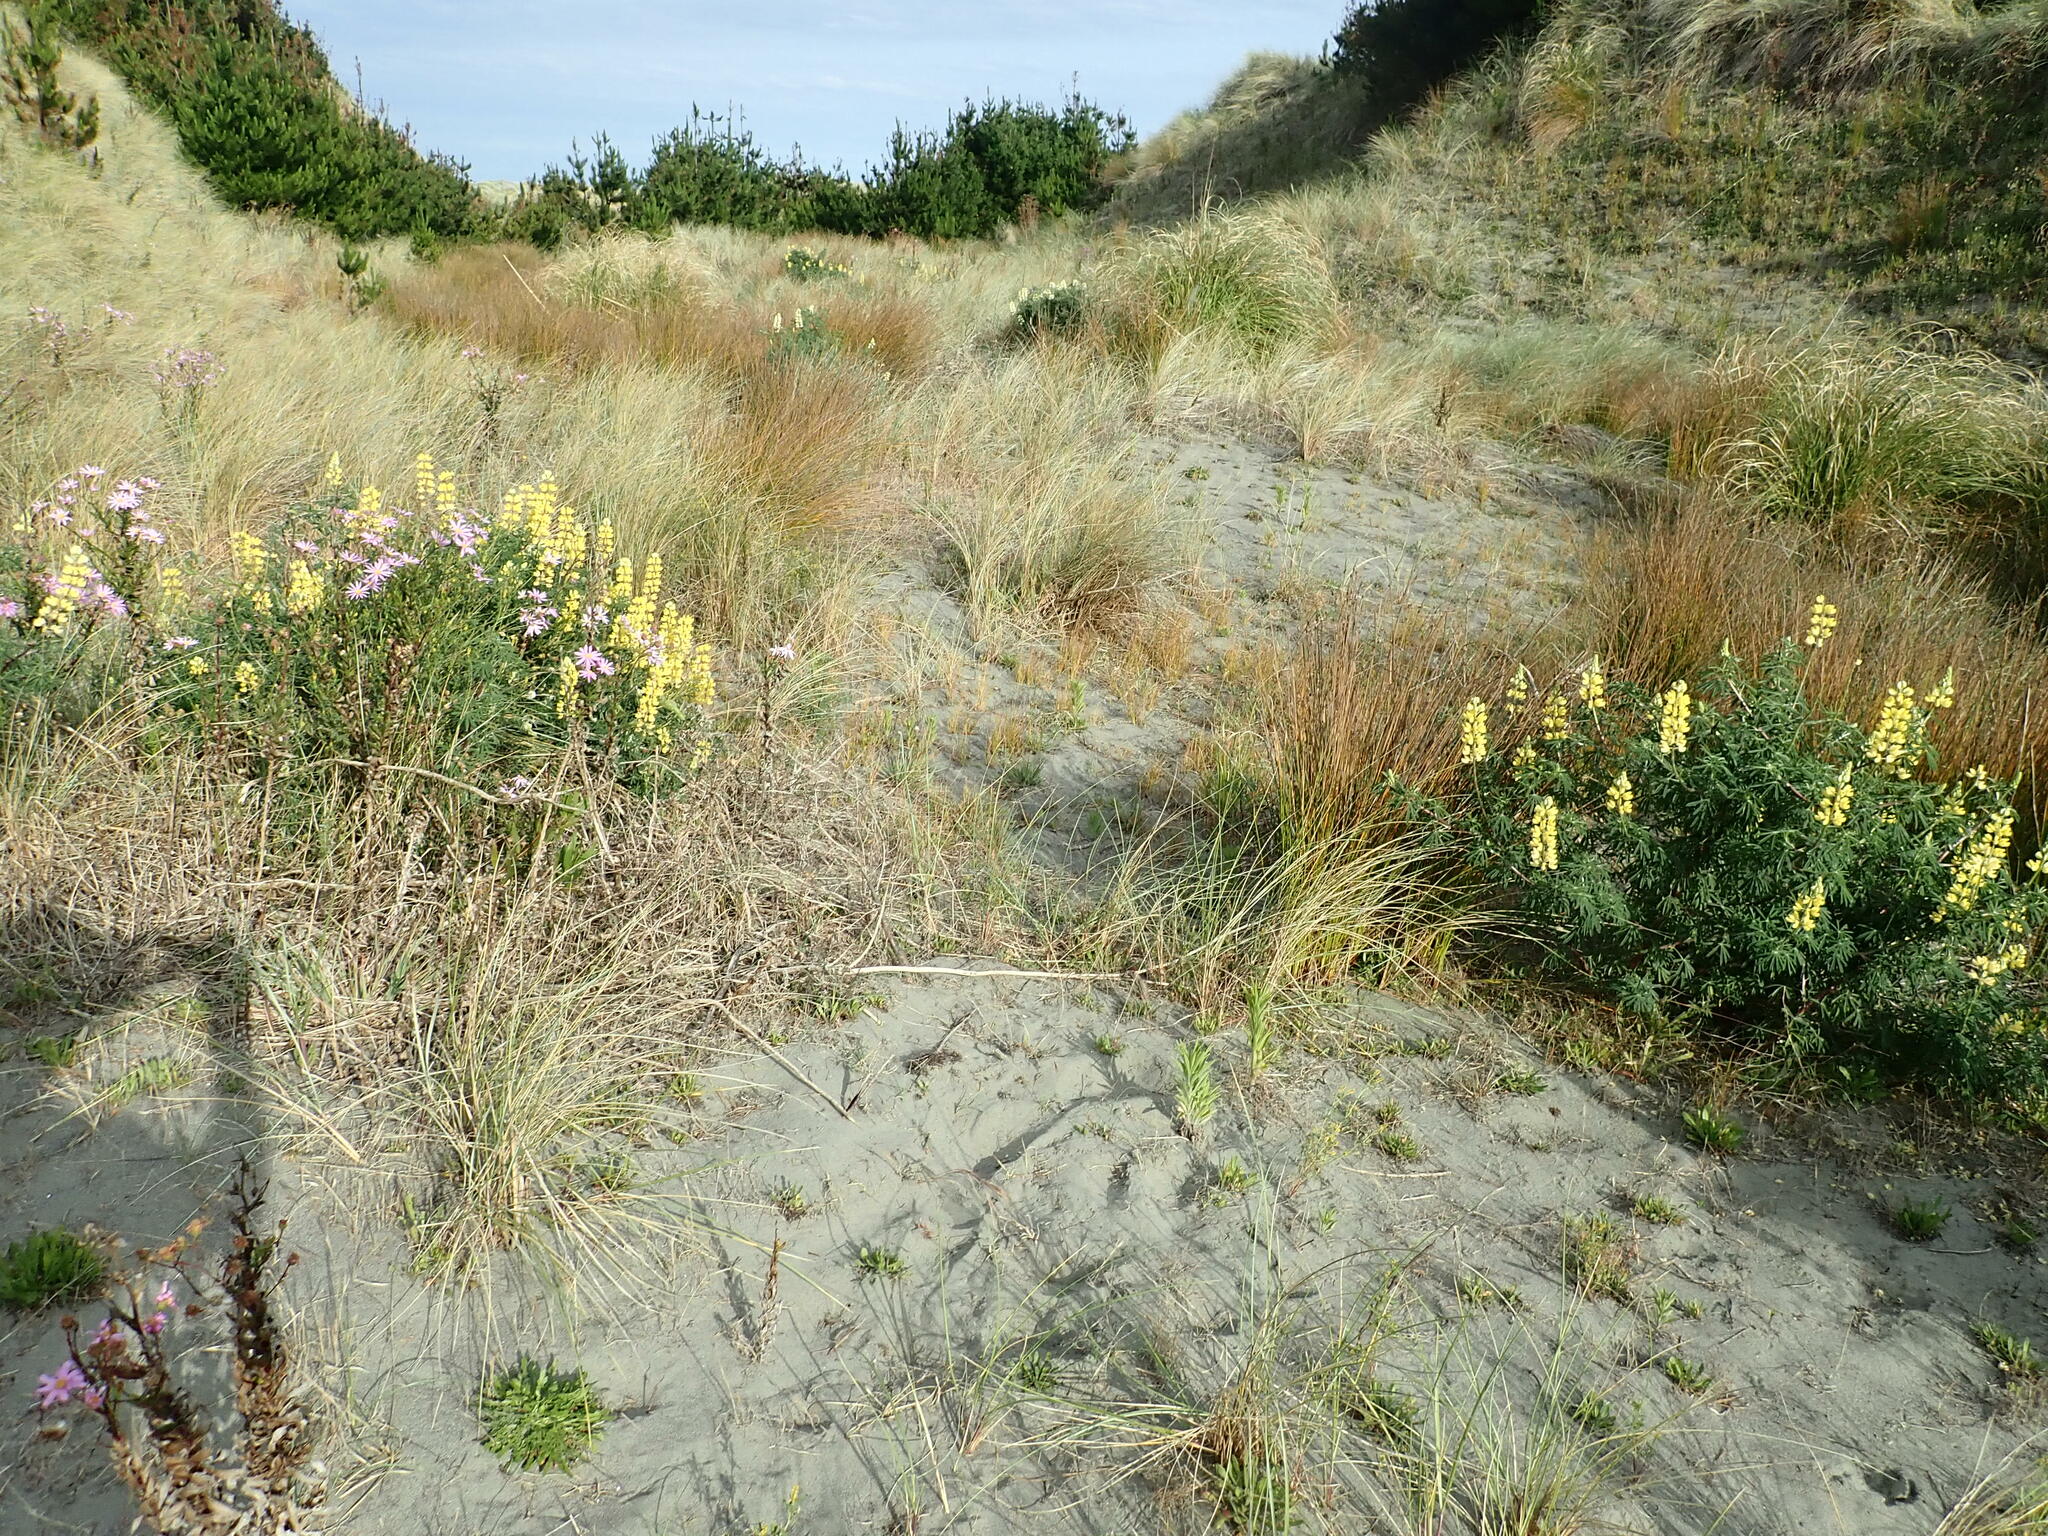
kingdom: Plantae
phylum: Tracheophyta
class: Liliopsida
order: Poales
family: Cyperaceae
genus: Ficinia
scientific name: Ficinia nodosa
